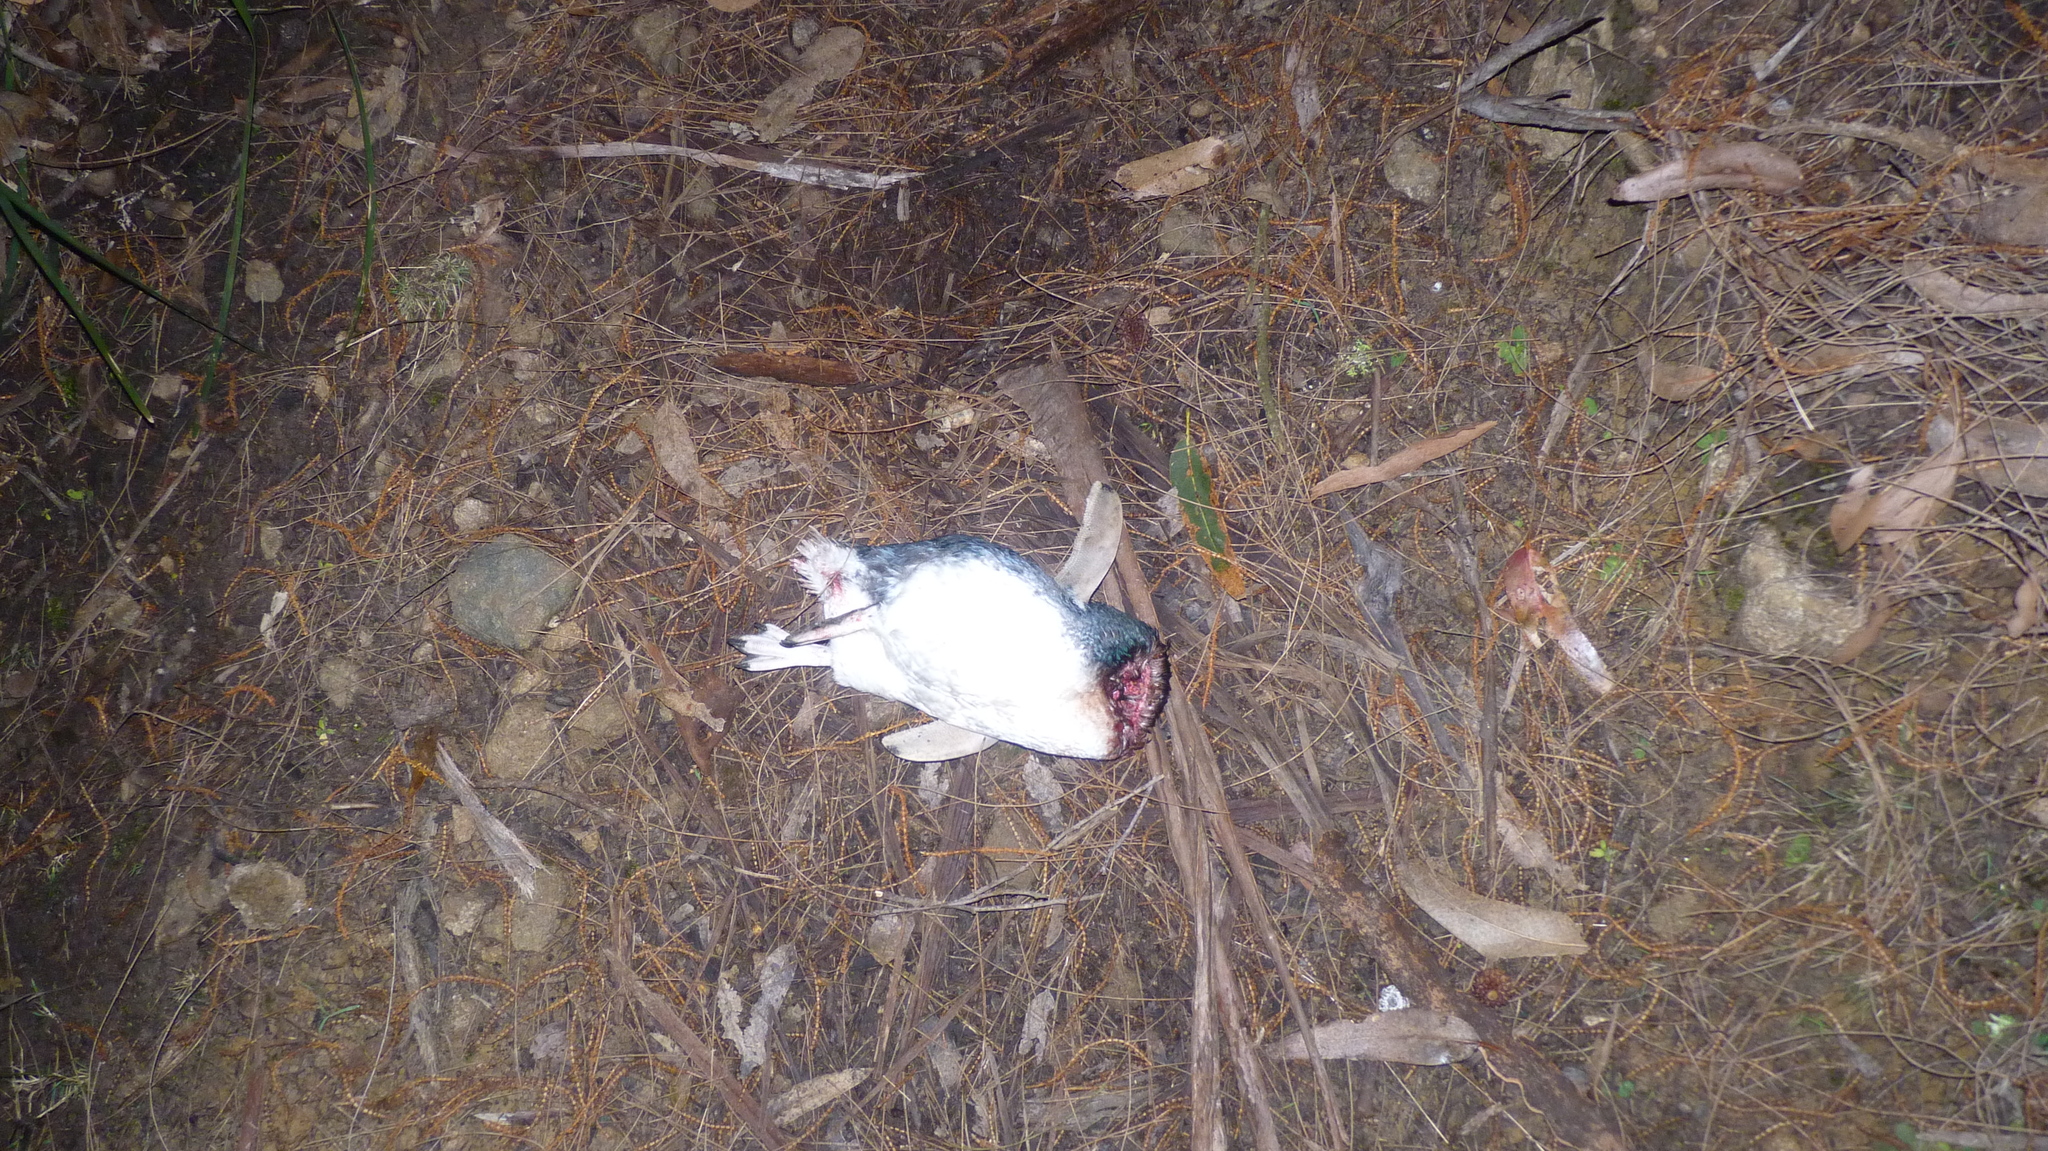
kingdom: Animalia
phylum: Chordata
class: Aves
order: Sphenisciformes
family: Spheniscidae
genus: Eudyptula
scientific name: Eudyptula minor
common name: Little penguin
